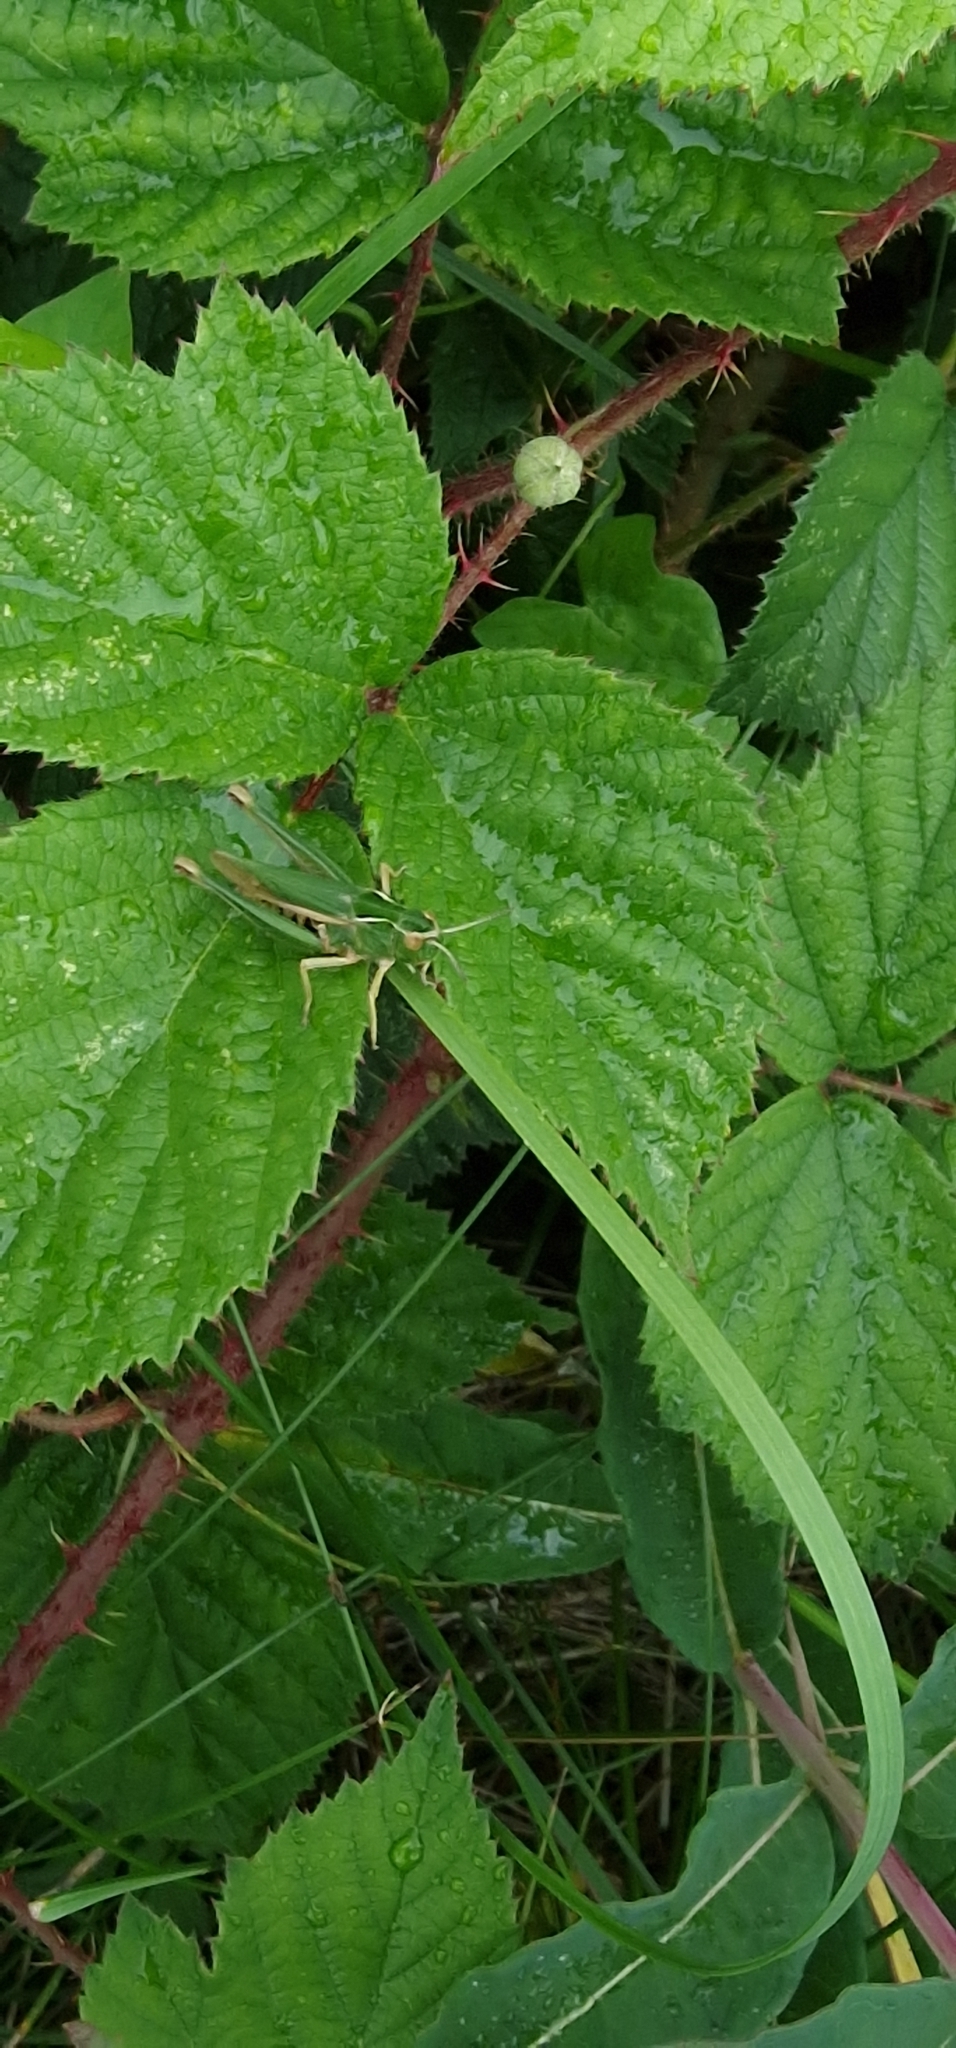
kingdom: Animalia
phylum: Arthropoda
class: Insecta
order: Orthoptera
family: Acrididae
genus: Omocestus
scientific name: Omocestus viridulus
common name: Common green grasshopper
